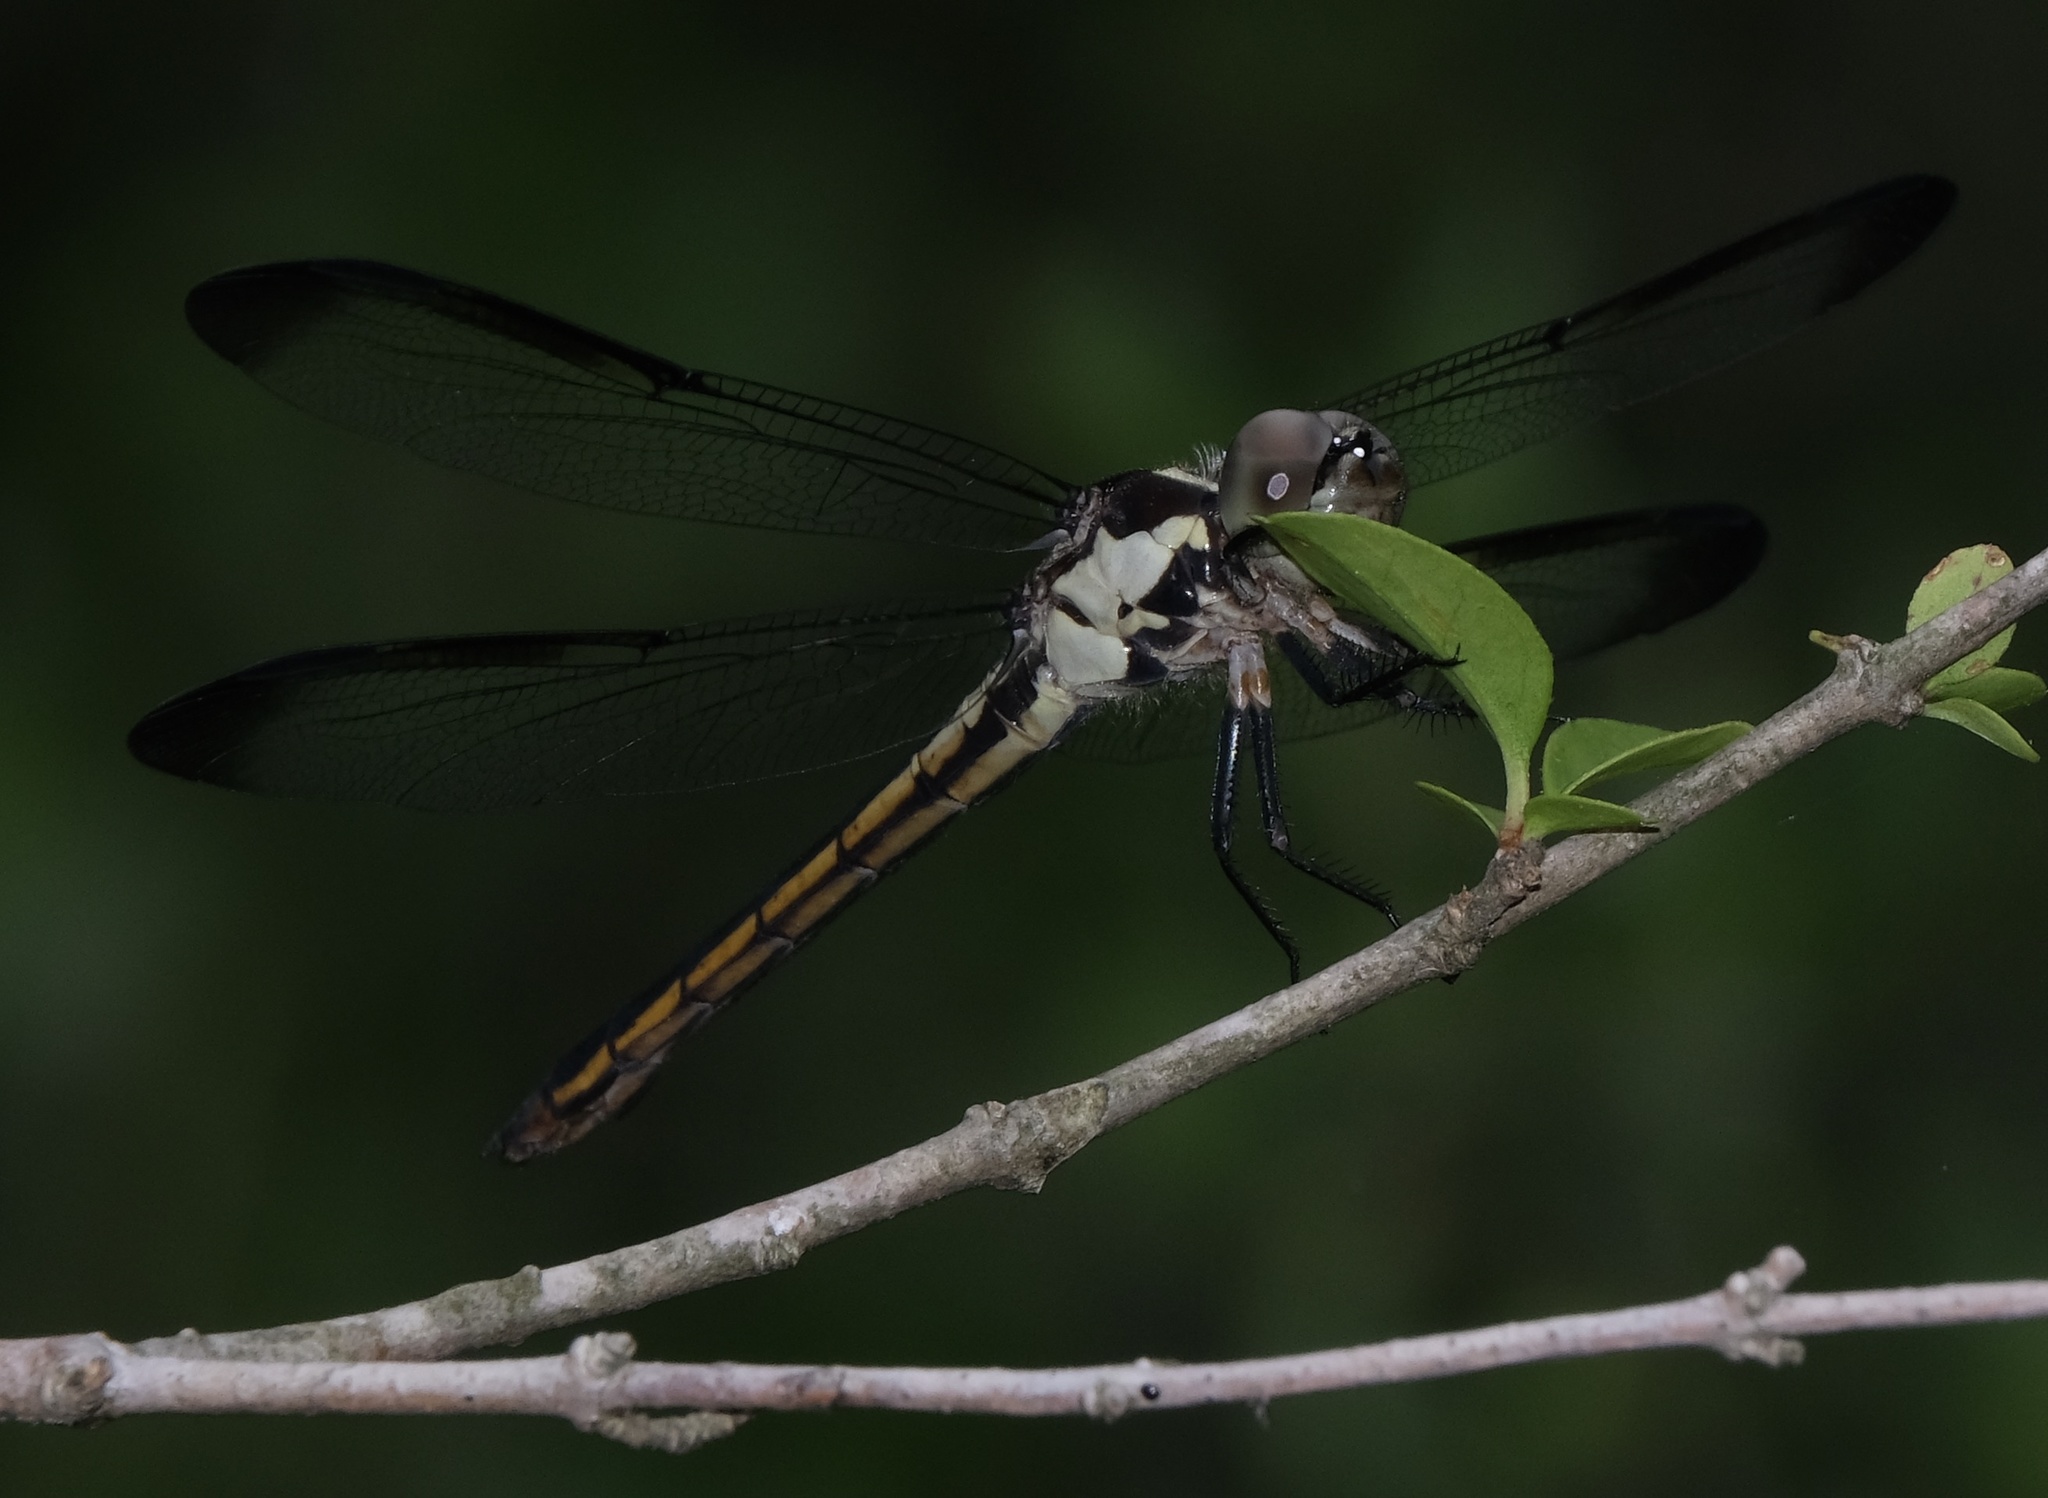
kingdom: Animalia
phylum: Arthropoda
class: Insecta
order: Odonata
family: Libellulidae
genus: Libellula
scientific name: Libellula incesta
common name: Slaty skimmer
